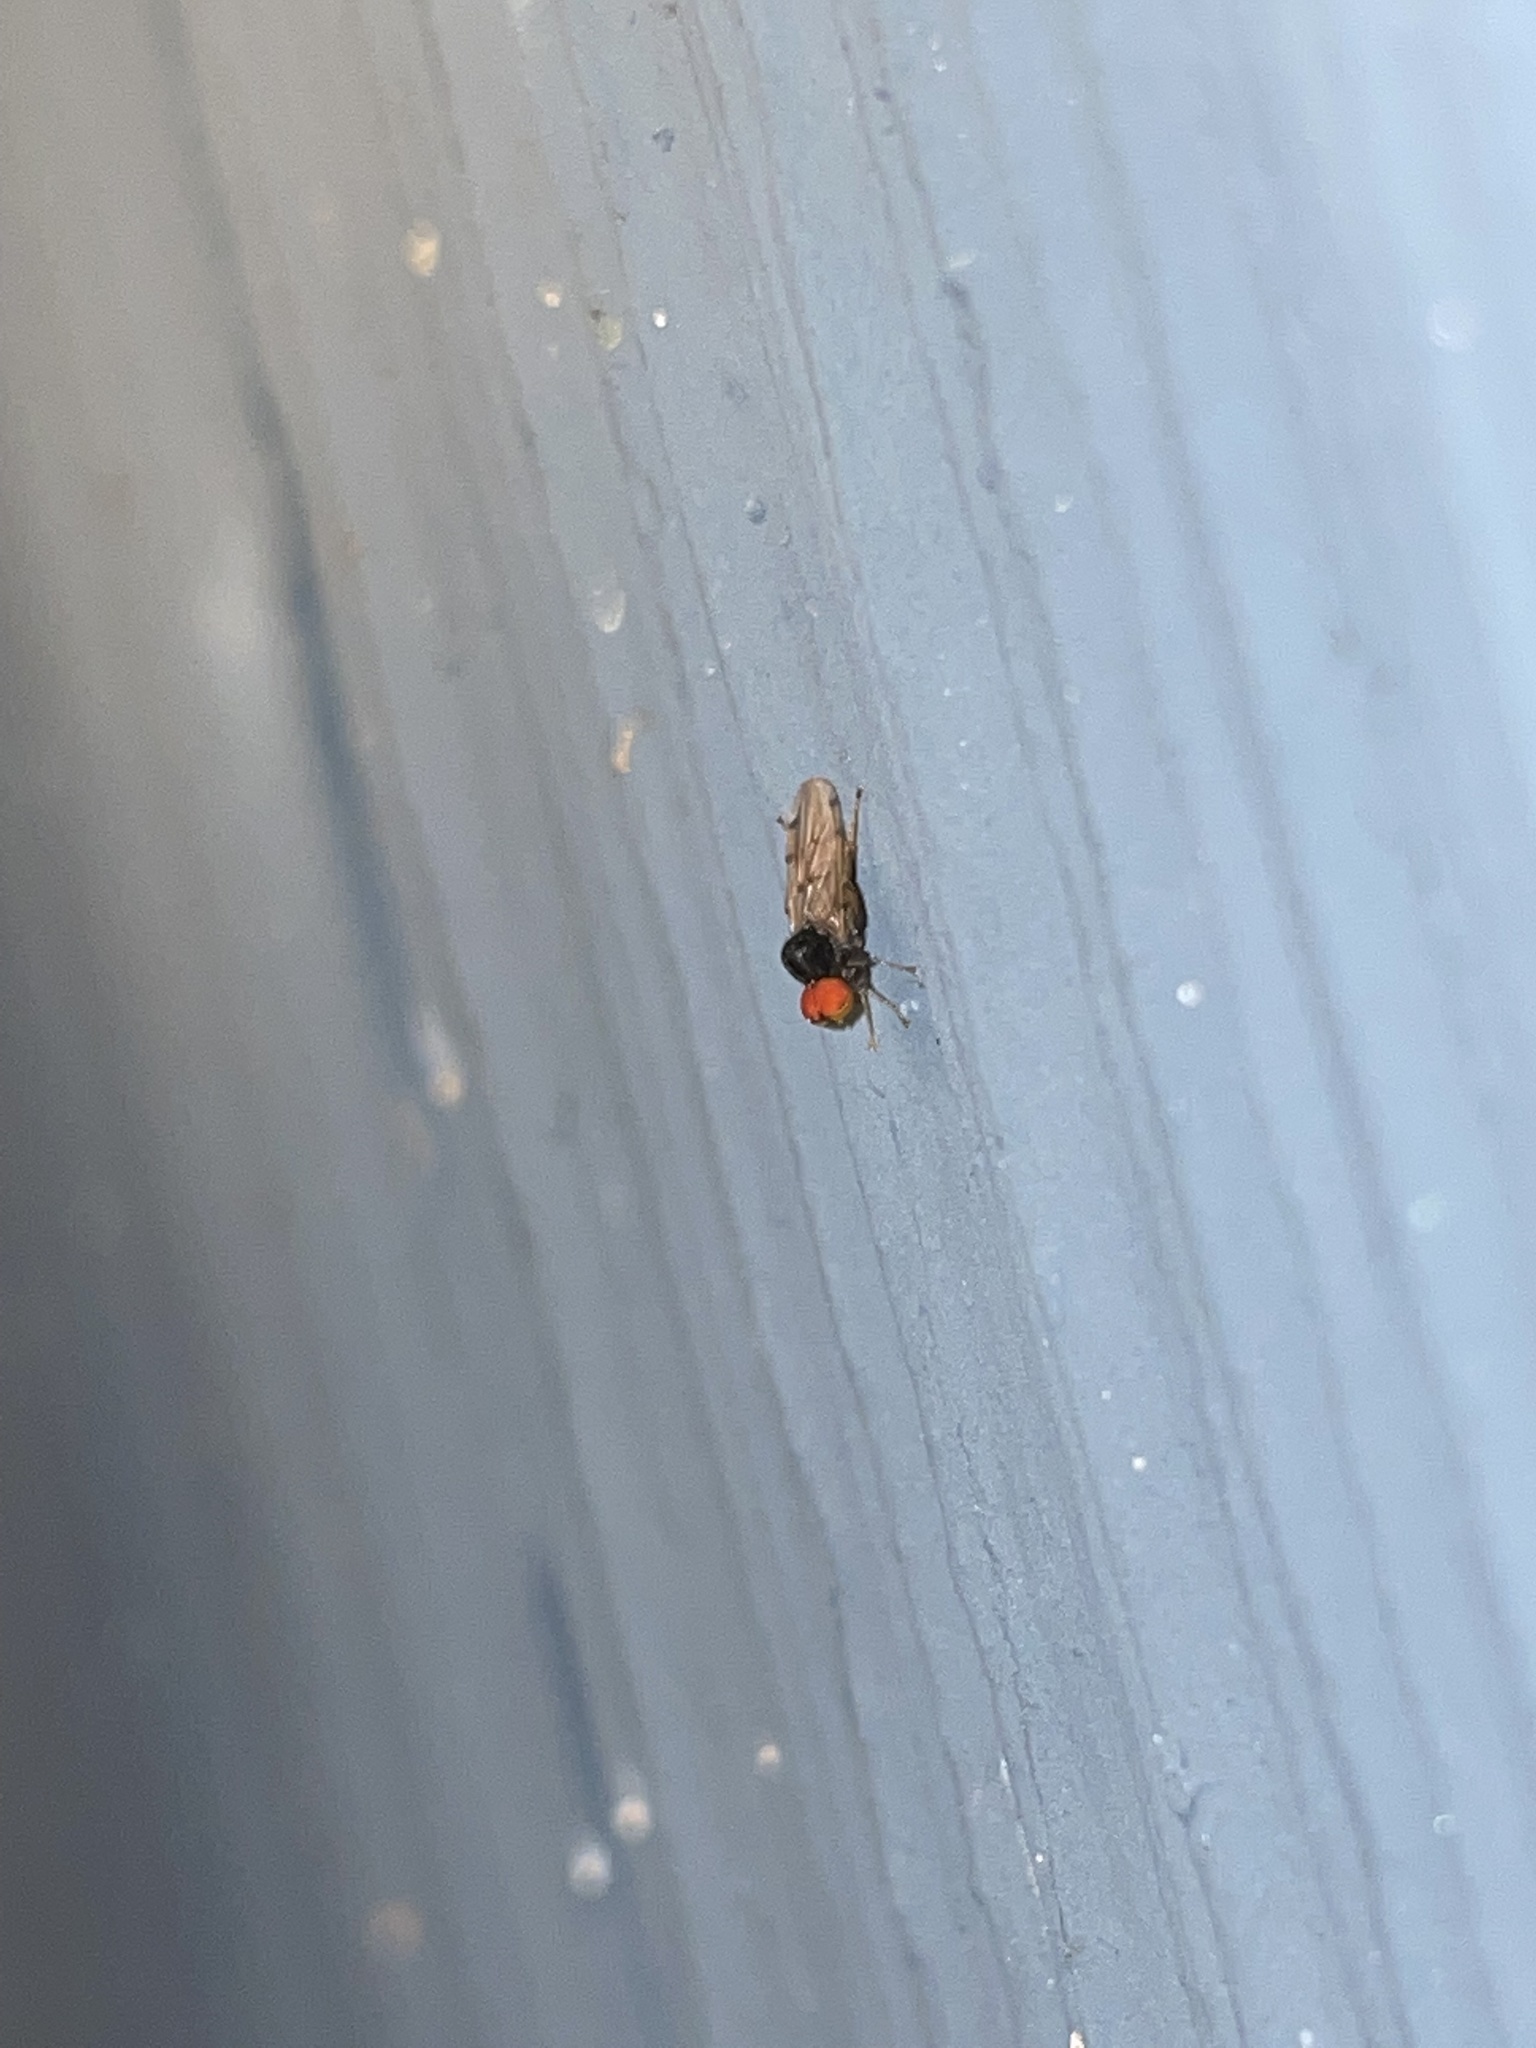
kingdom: Animalia
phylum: Arthropoda
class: Insecta
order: Diptera
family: Hybotidae
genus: Syneches
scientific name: Syneches simplex
